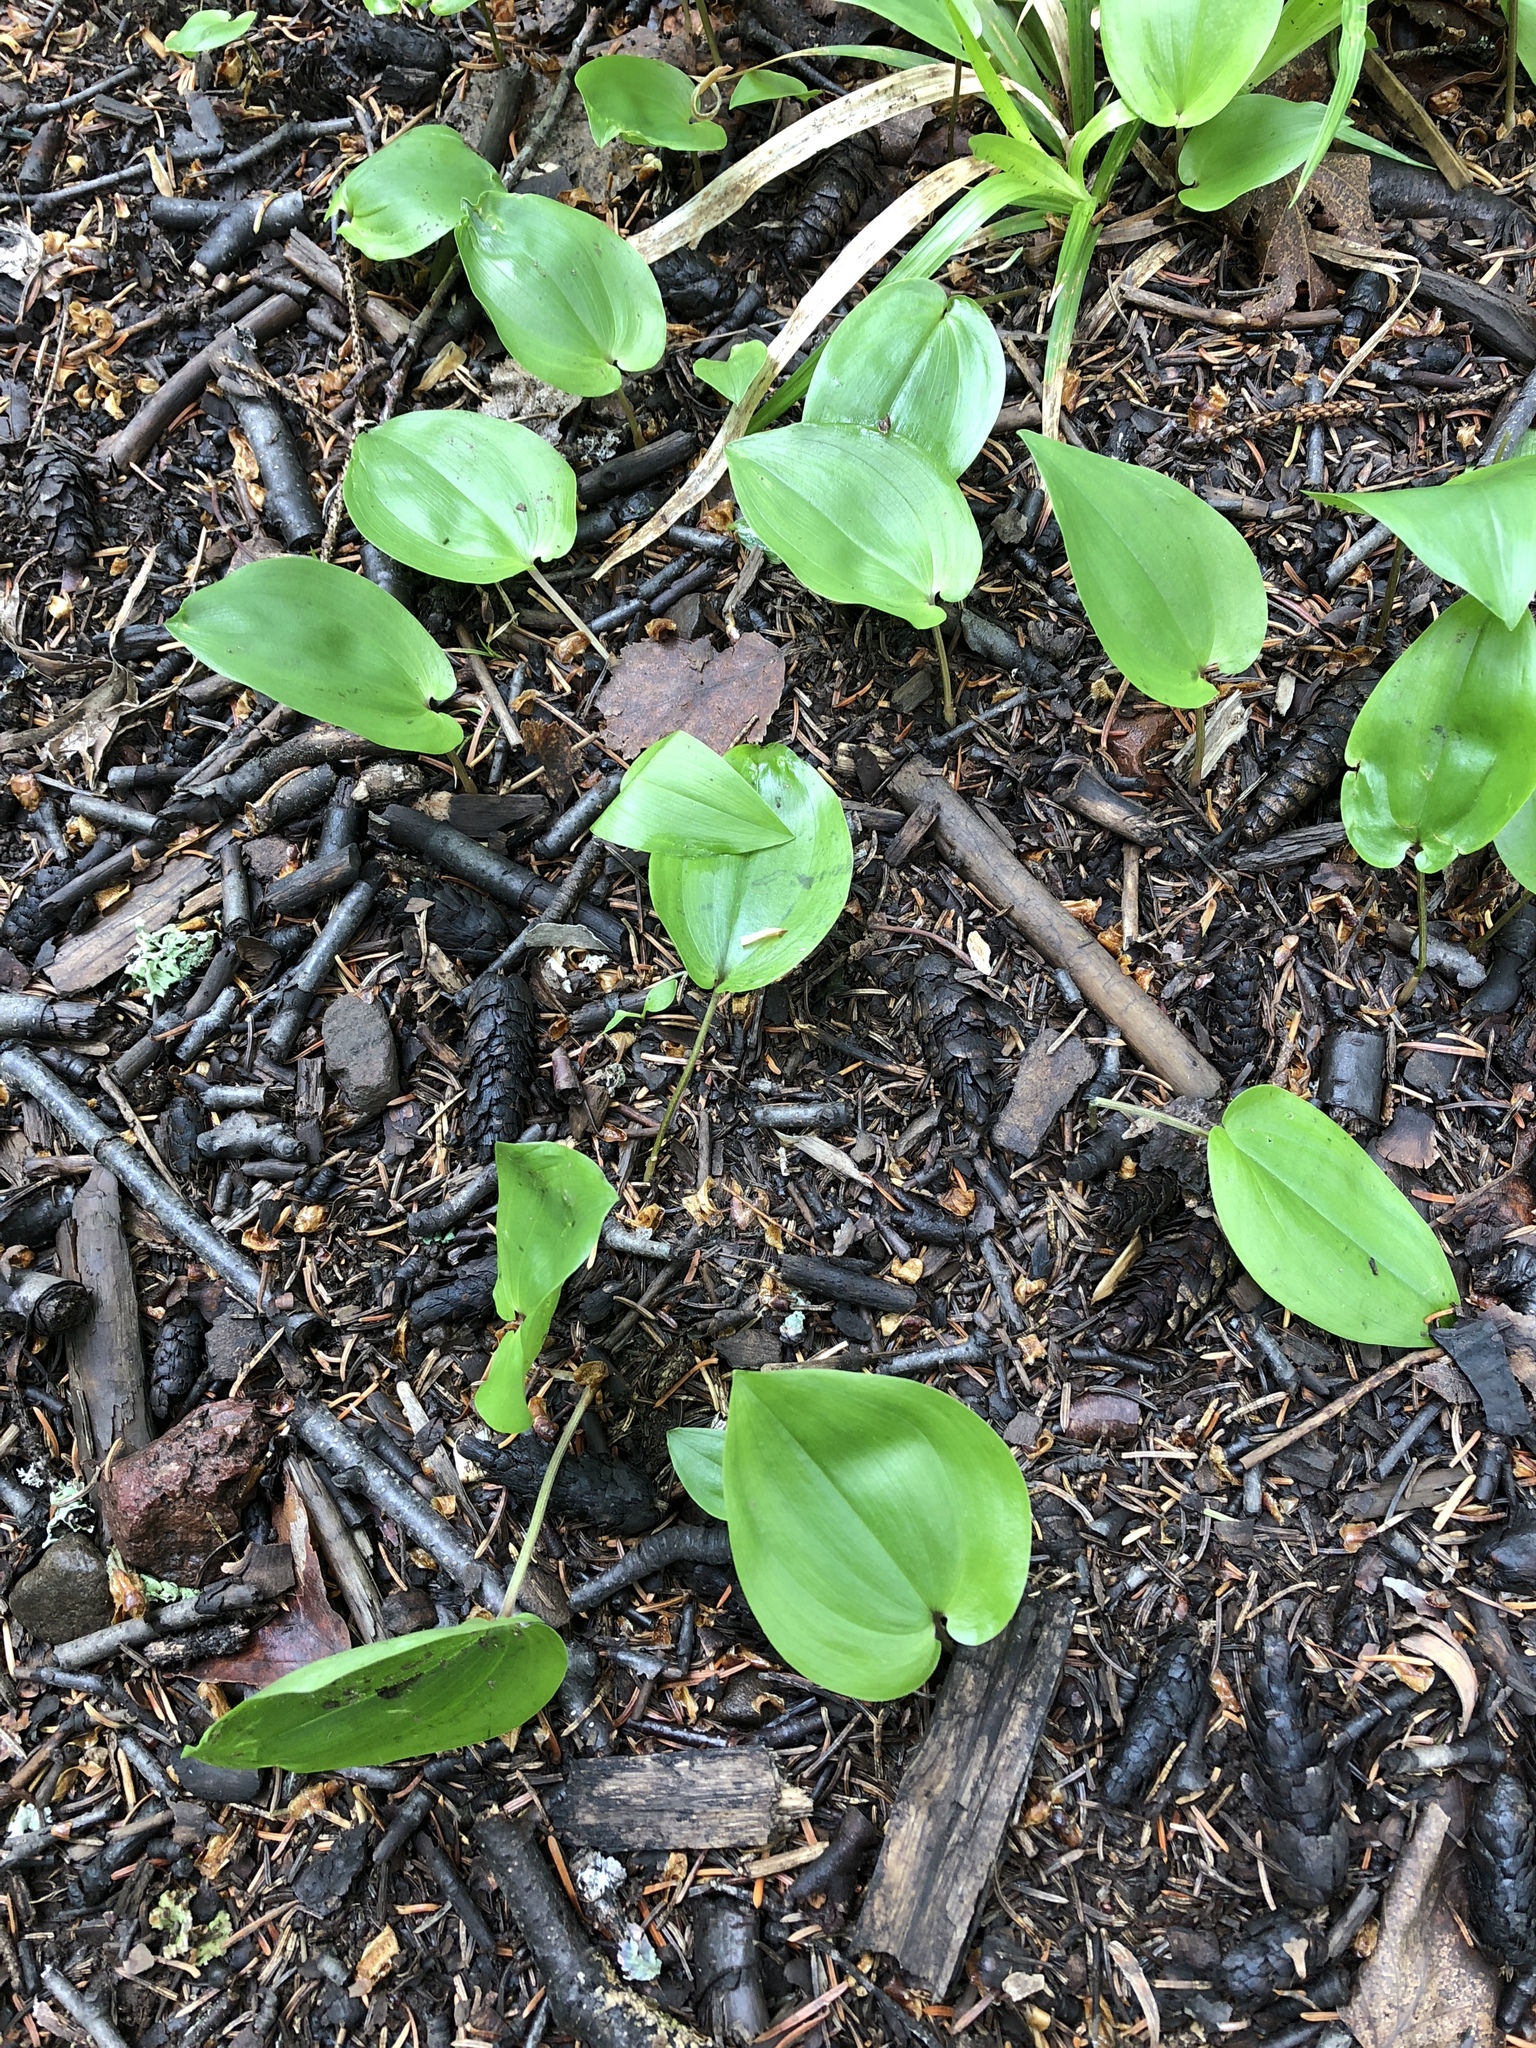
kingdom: Plantae
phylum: Tracheophyta
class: Liliopsida
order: Asparagales
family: Asparagaceae
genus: Maianthemum
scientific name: Maianthemum canadense
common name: False lily-of-the-valley
